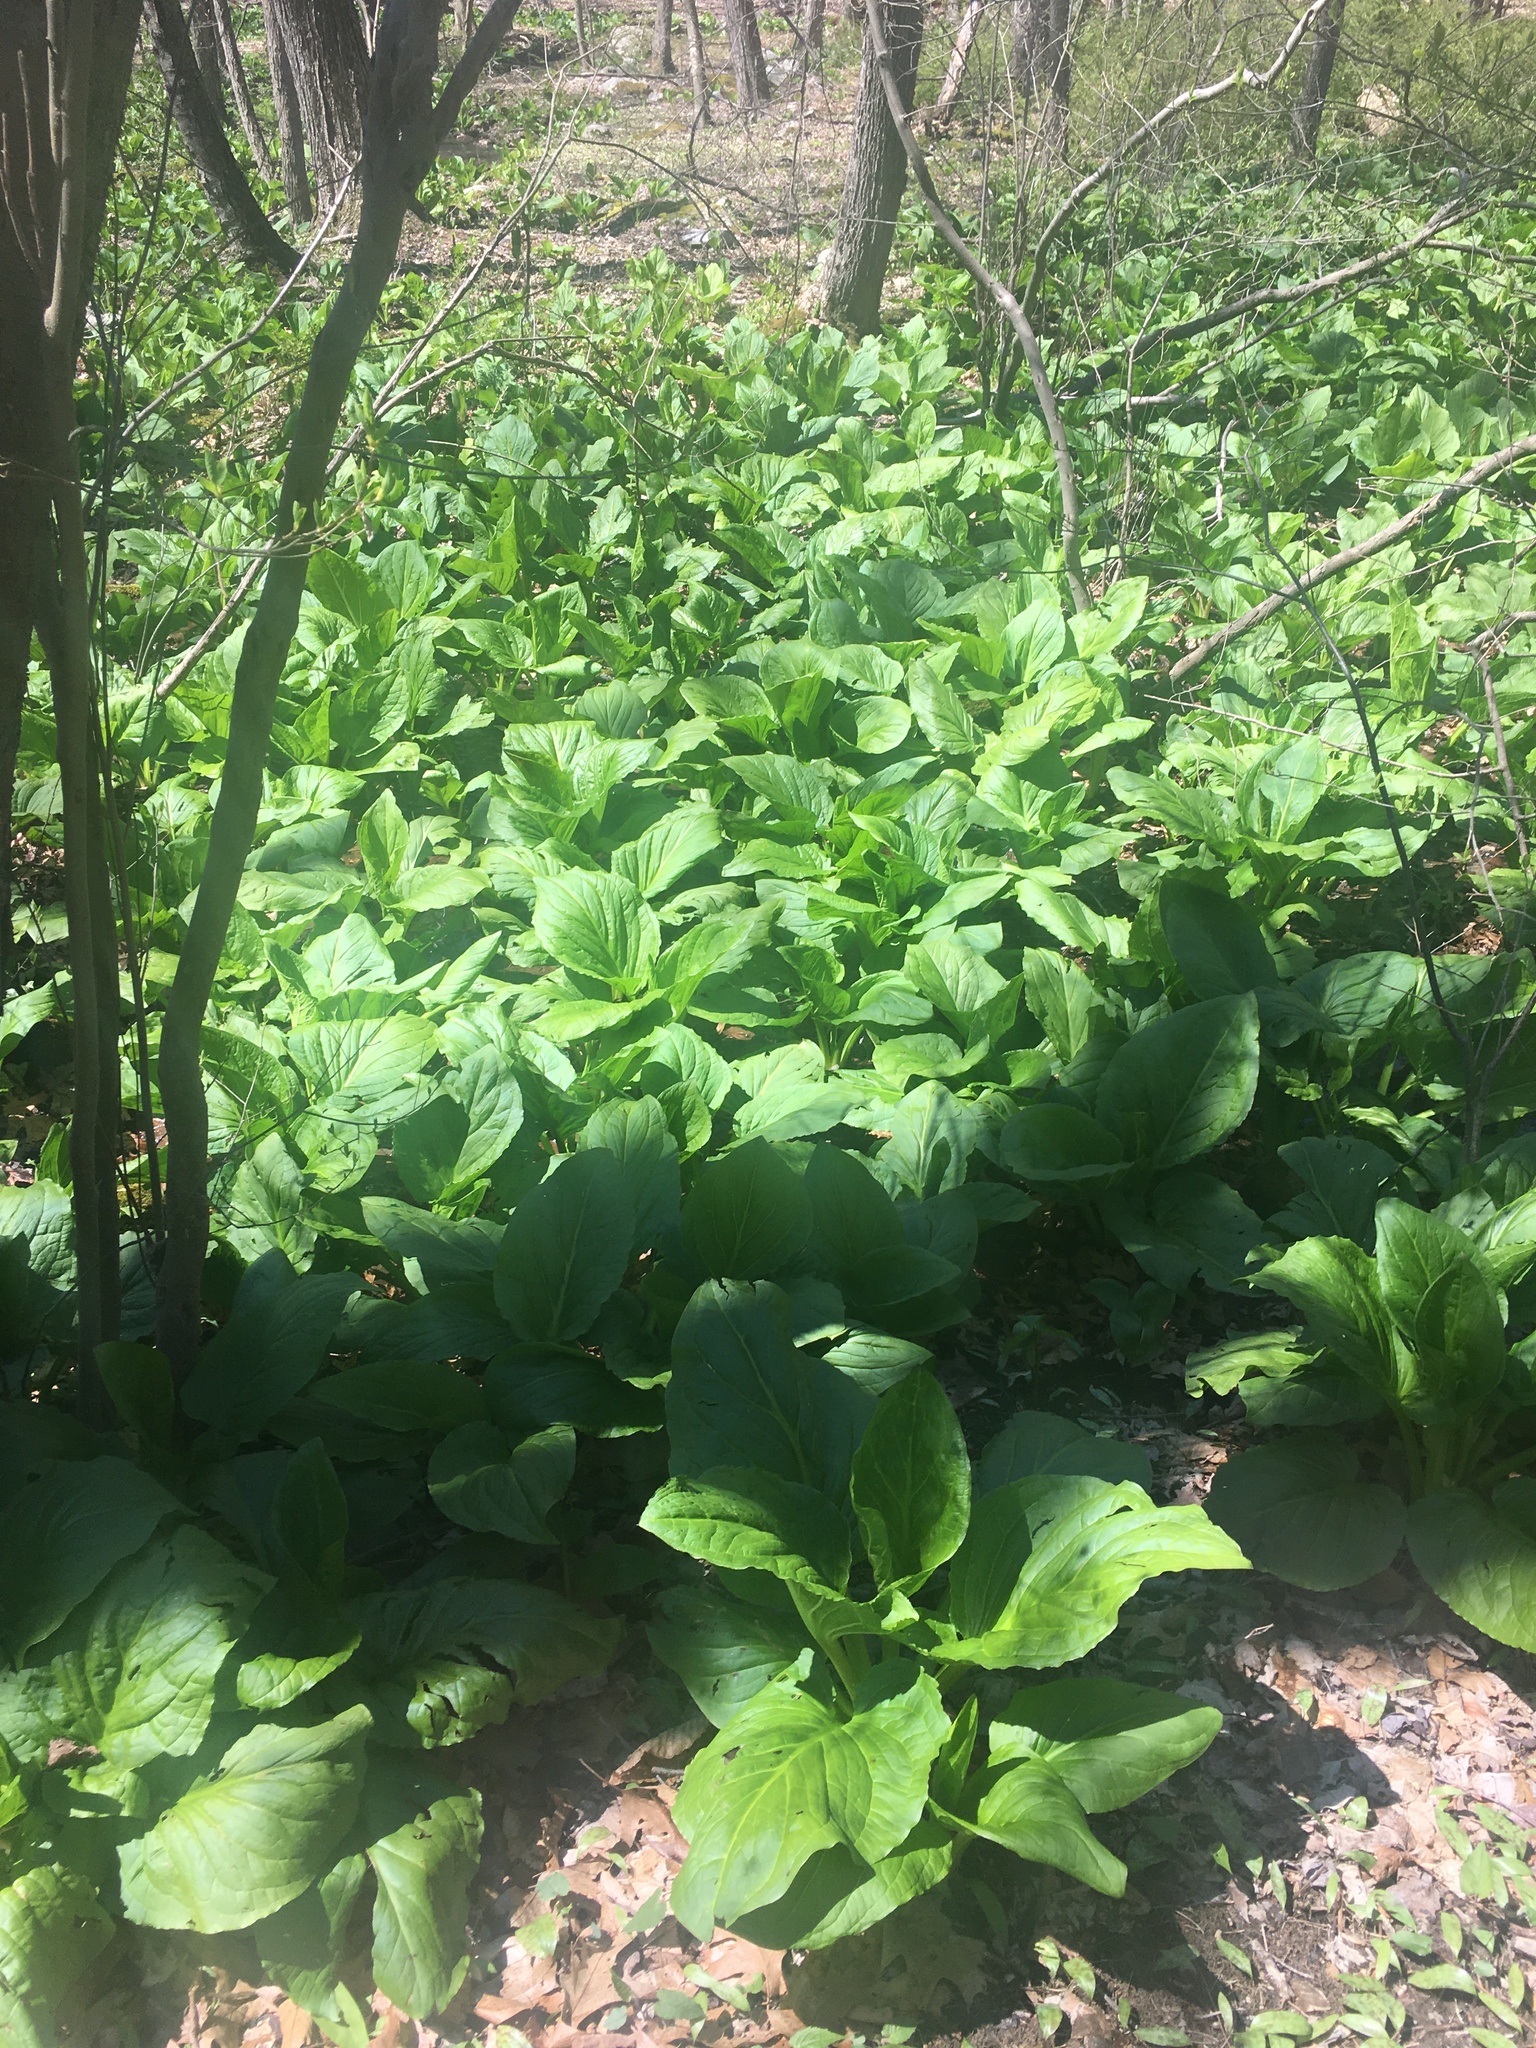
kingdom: Plantae
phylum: Tracheophyta
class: Liliopsida
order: Alismatales
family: Araceae
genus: Symplocarpus
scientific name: Symplocarpus foetidus
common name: Eastern skunk cabbage
